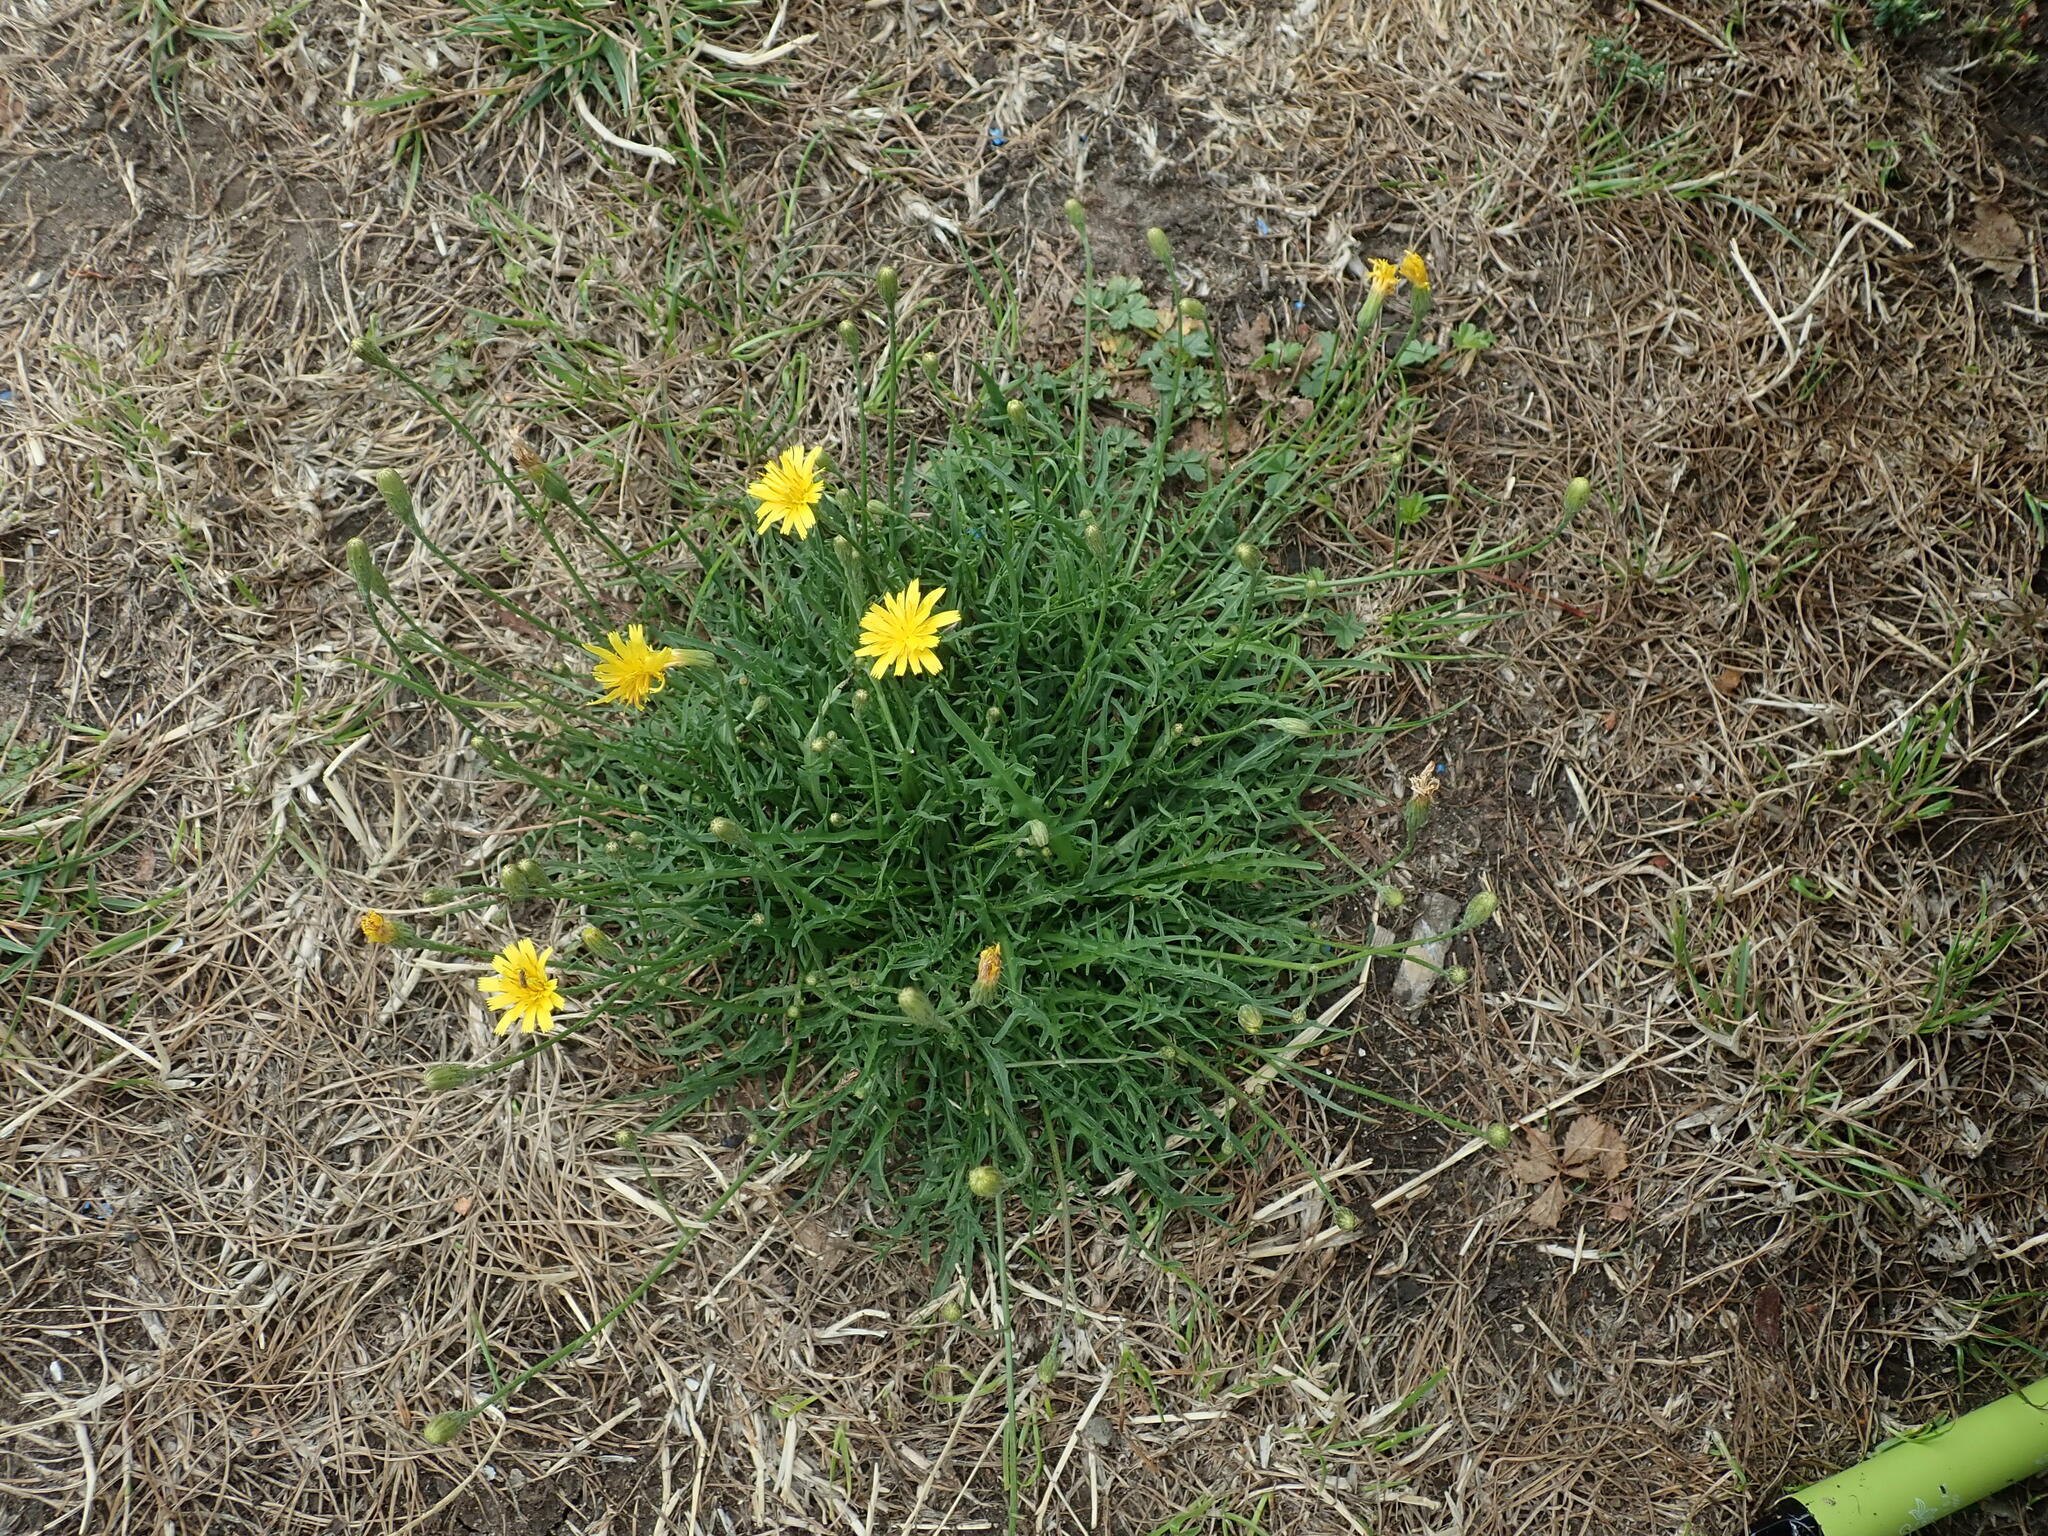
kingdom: Plantae
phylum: Tracheophyta
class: Magnoliopsida
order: Asterales
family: Asteraceae
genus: Scorzoneroides
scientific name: Scorzoneroides autumnalis
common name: Autumn hawkbit
